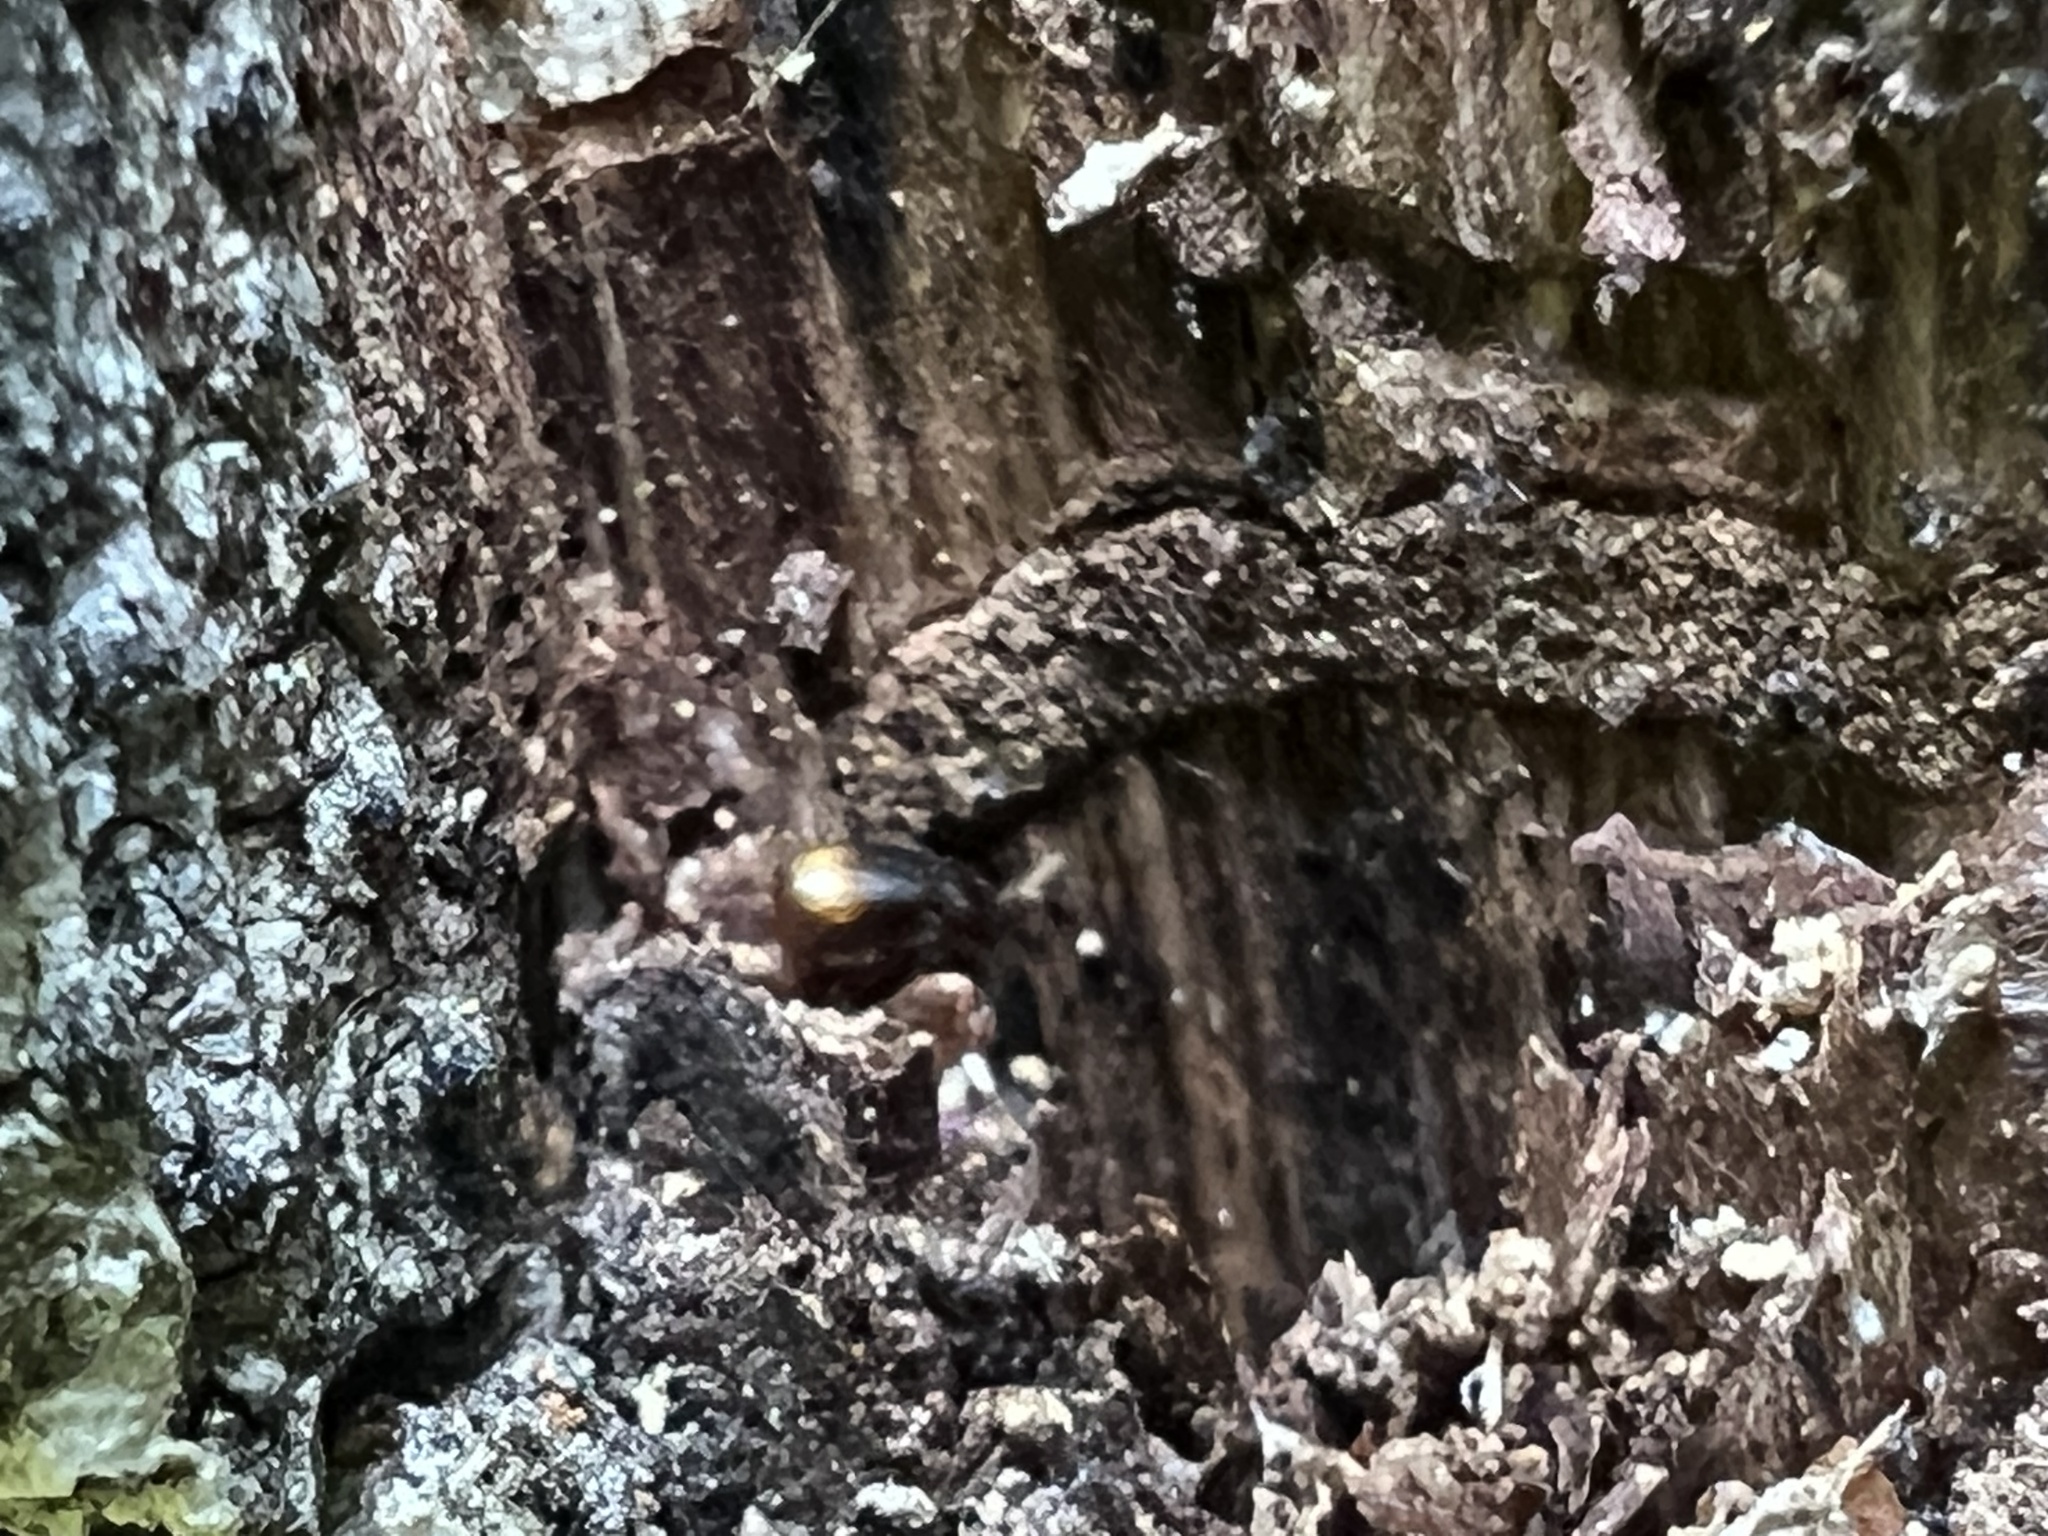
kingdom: Animalia
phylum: Arthropoda
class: Insecta
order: Coleoptera
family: Carabidae
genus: Mioptachys
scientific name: Mioptachys flavicauda
